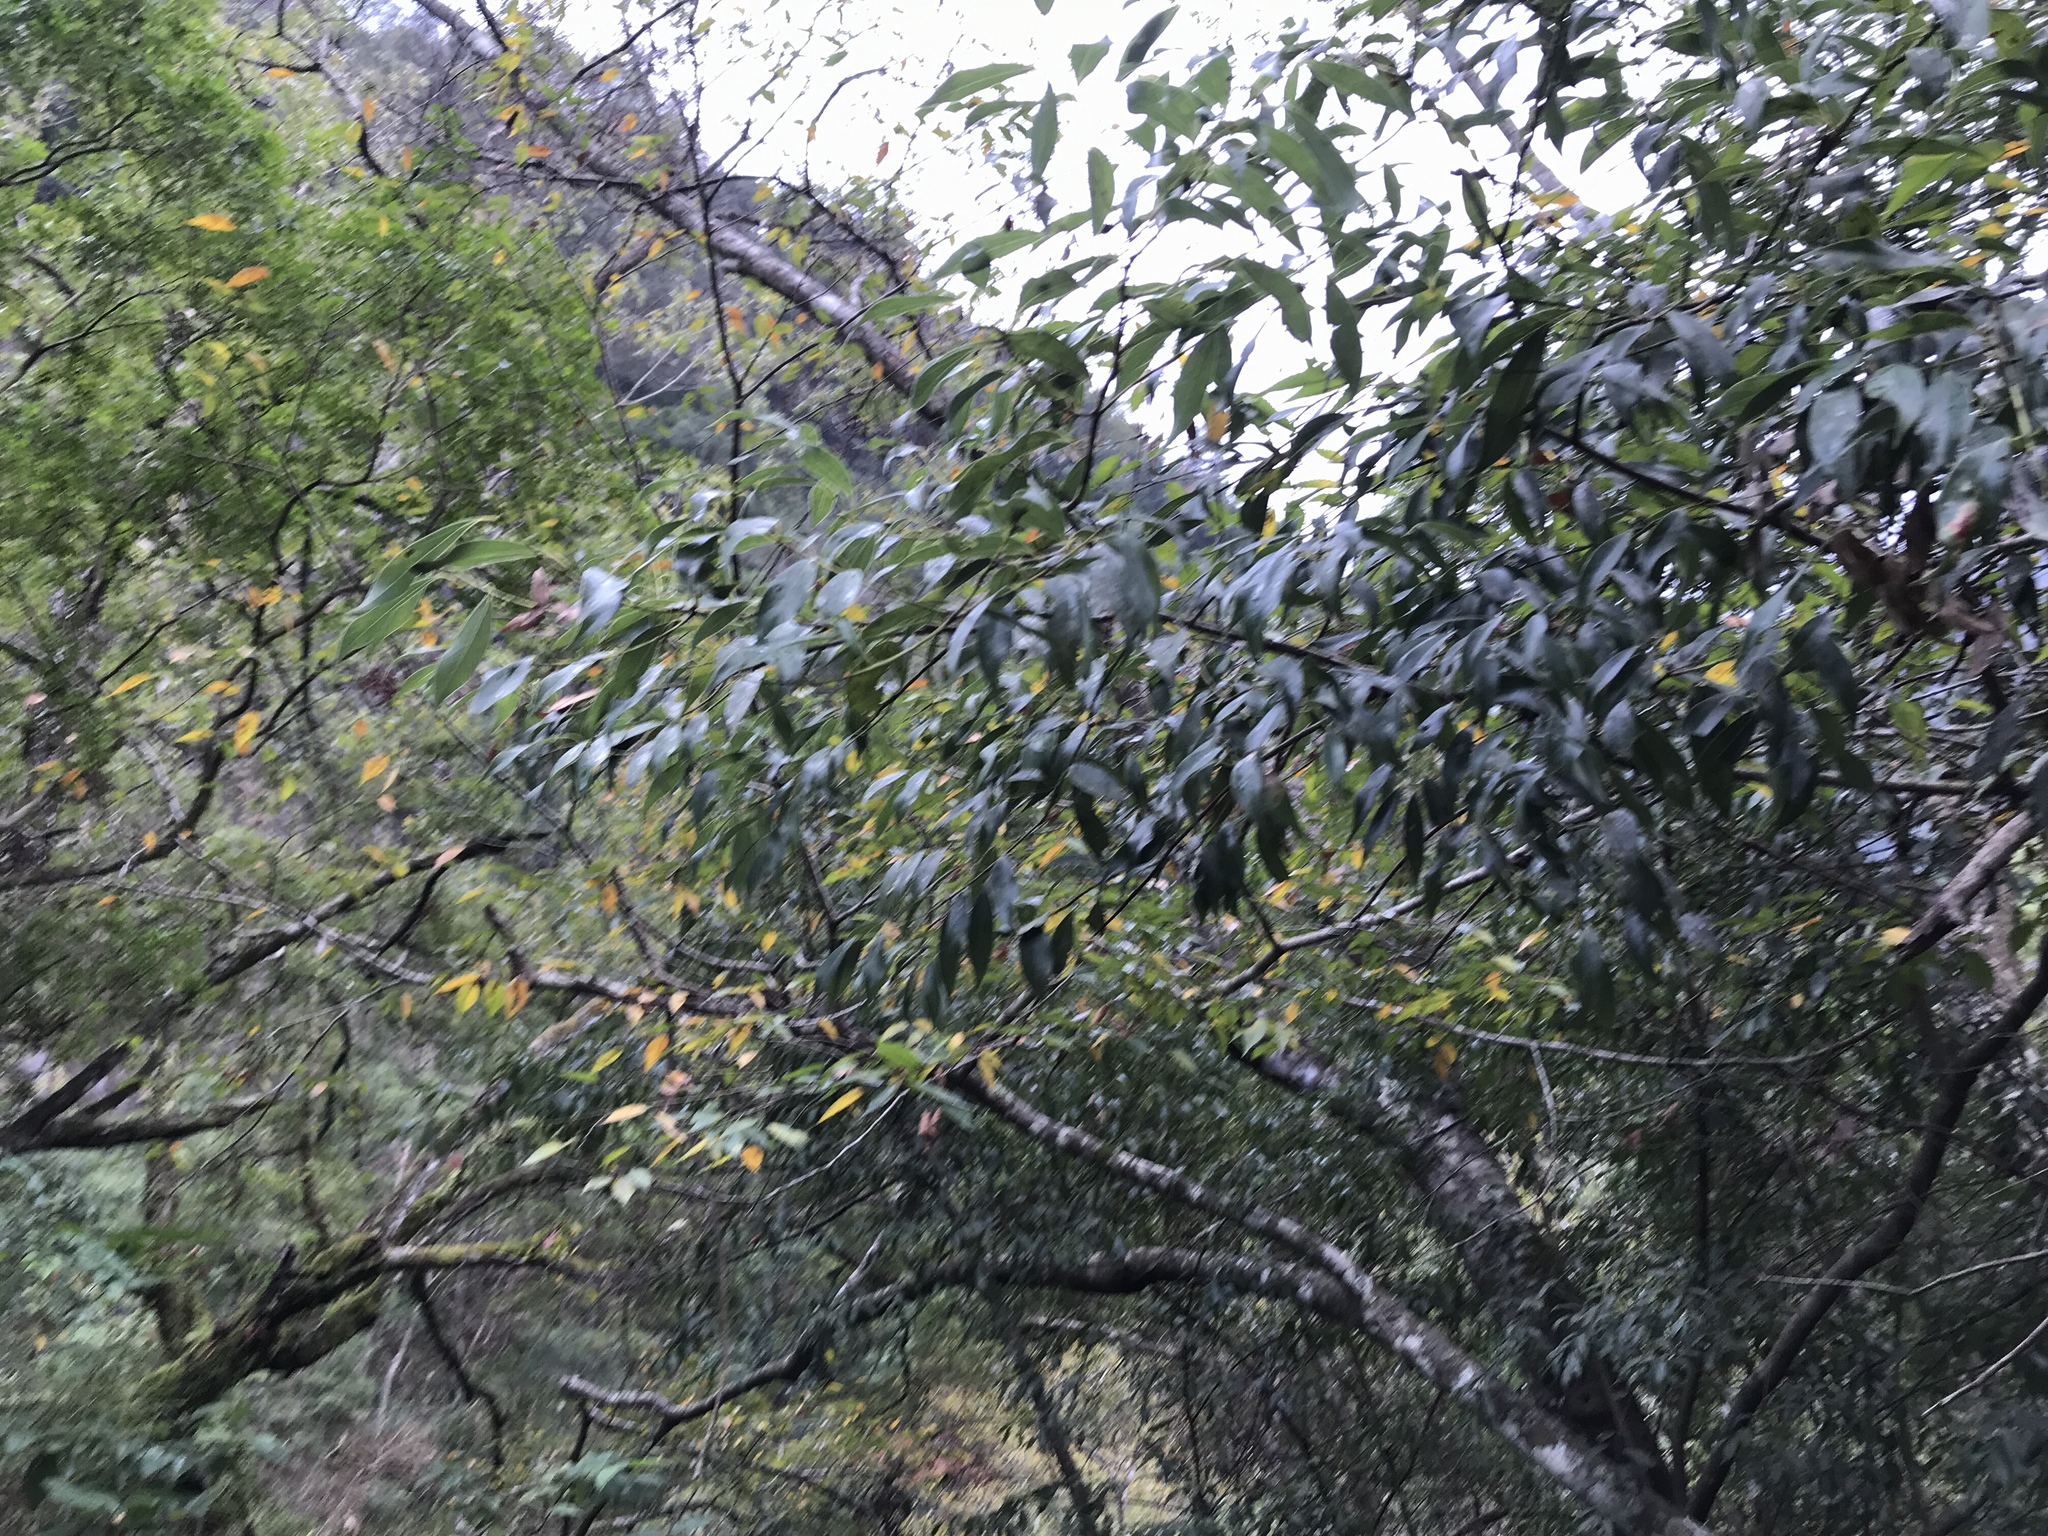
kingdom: Plantae
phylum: Tracheophyta
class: Magnoliopsida
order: Laurales
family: Lauraceae
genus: Cinnamomum
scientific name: Cinnamomum chekiangense
